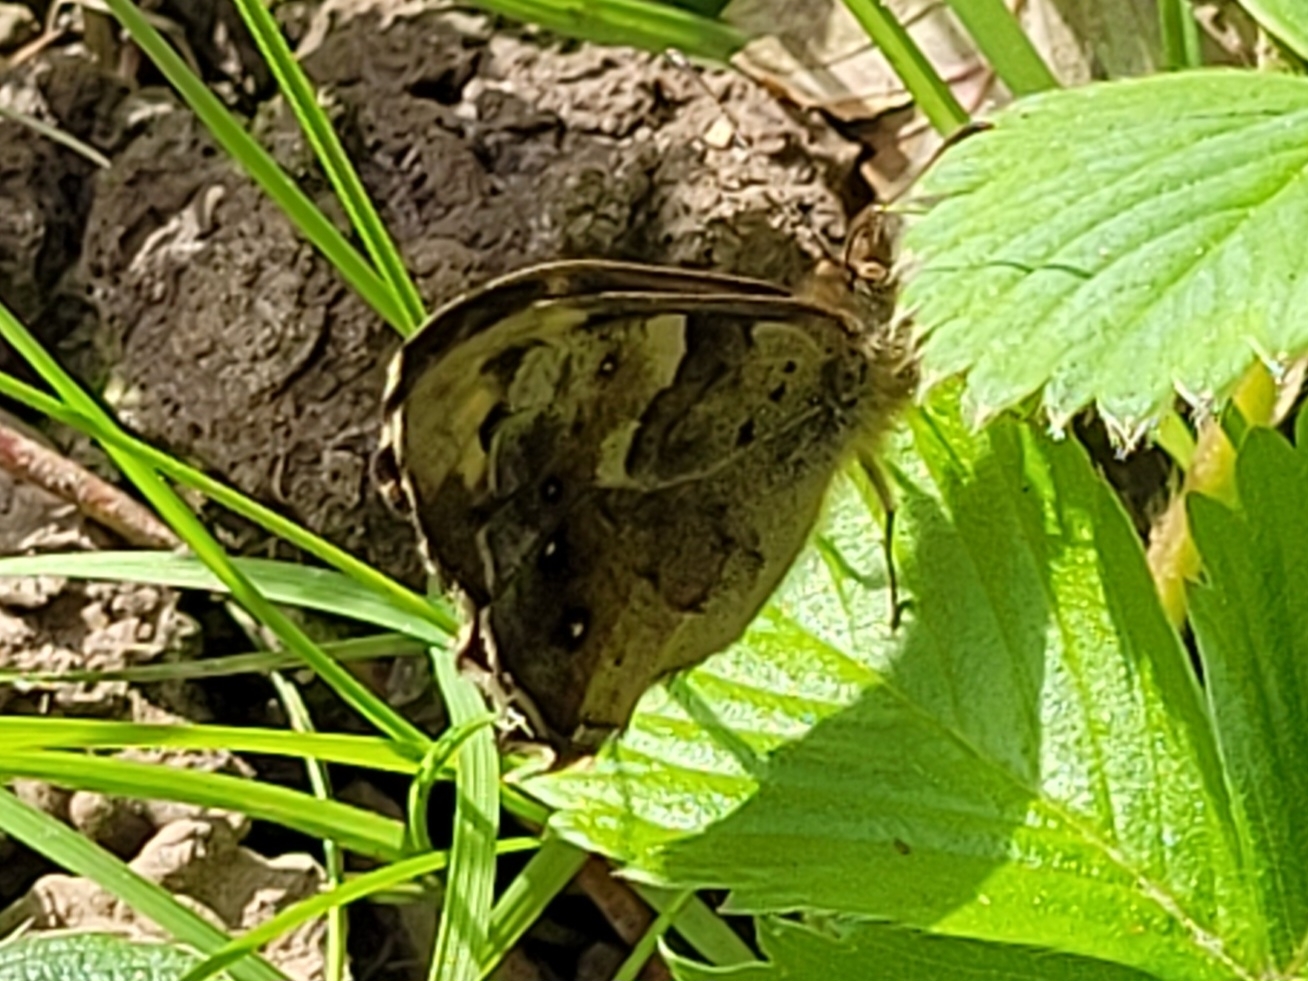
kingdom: Animalia
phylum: Arthropoda
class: Insecta
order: Lepidoptera
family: Nymphalidae
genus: Pararge
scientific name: Pararge aegeria
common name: Speckled wood
